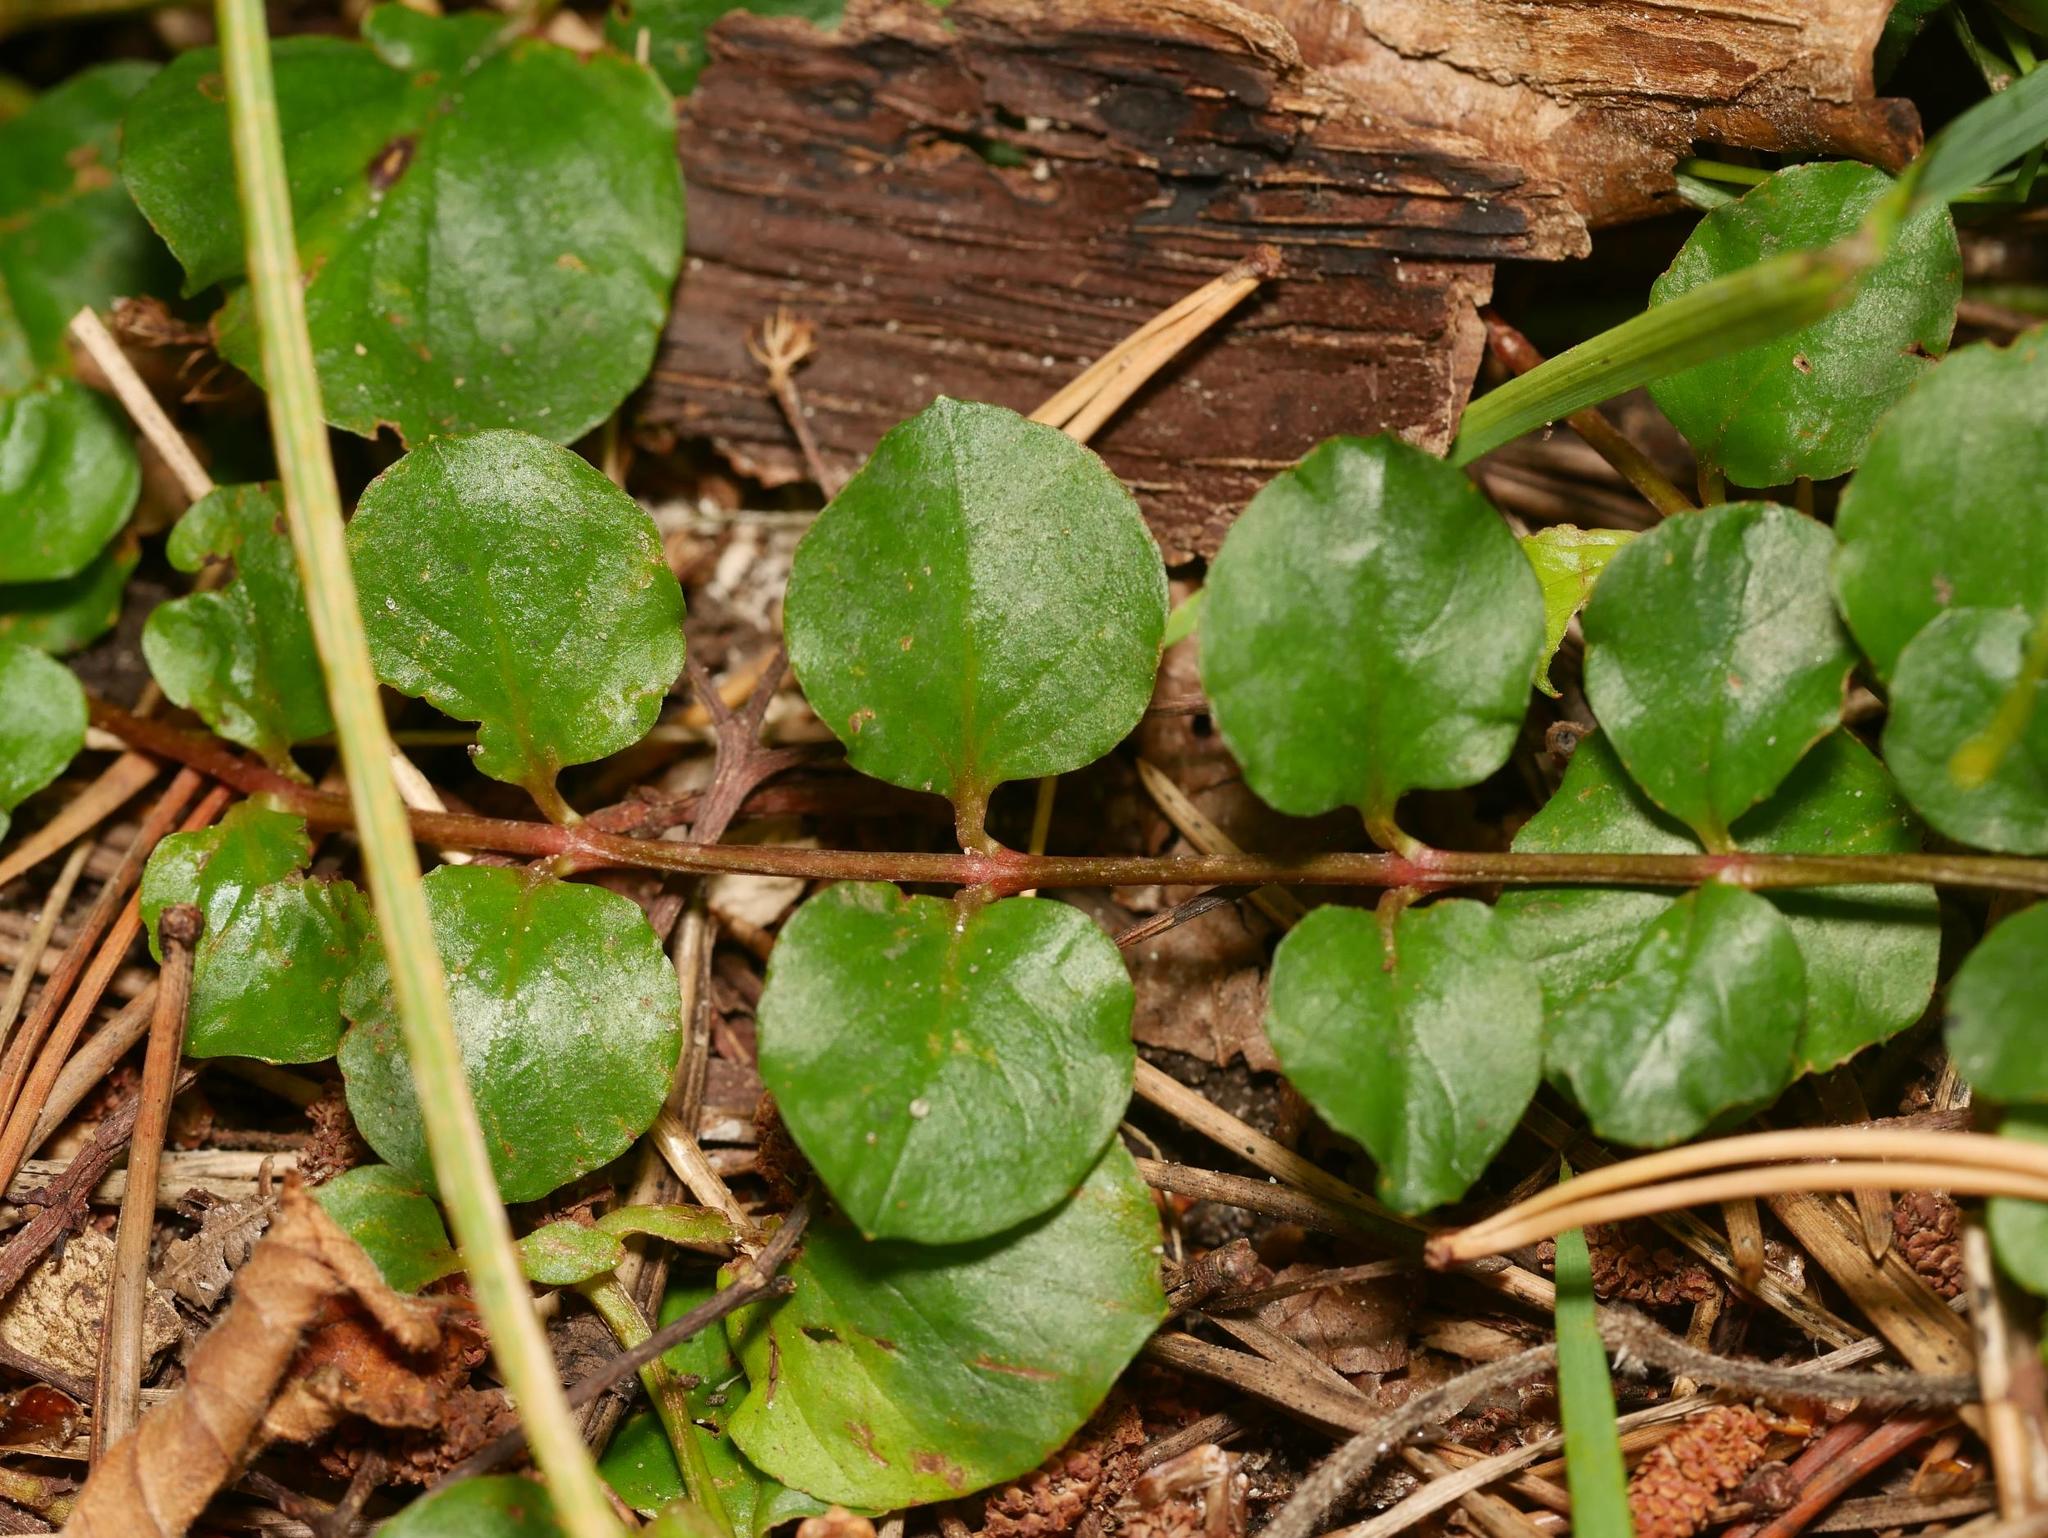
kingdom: Plantae
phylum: Tracheophyta
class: Magnoliopsida
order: Ericales
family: Primulaceae
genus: Lysimachia
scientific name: Lysimachia nummularia
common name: Moneywort
